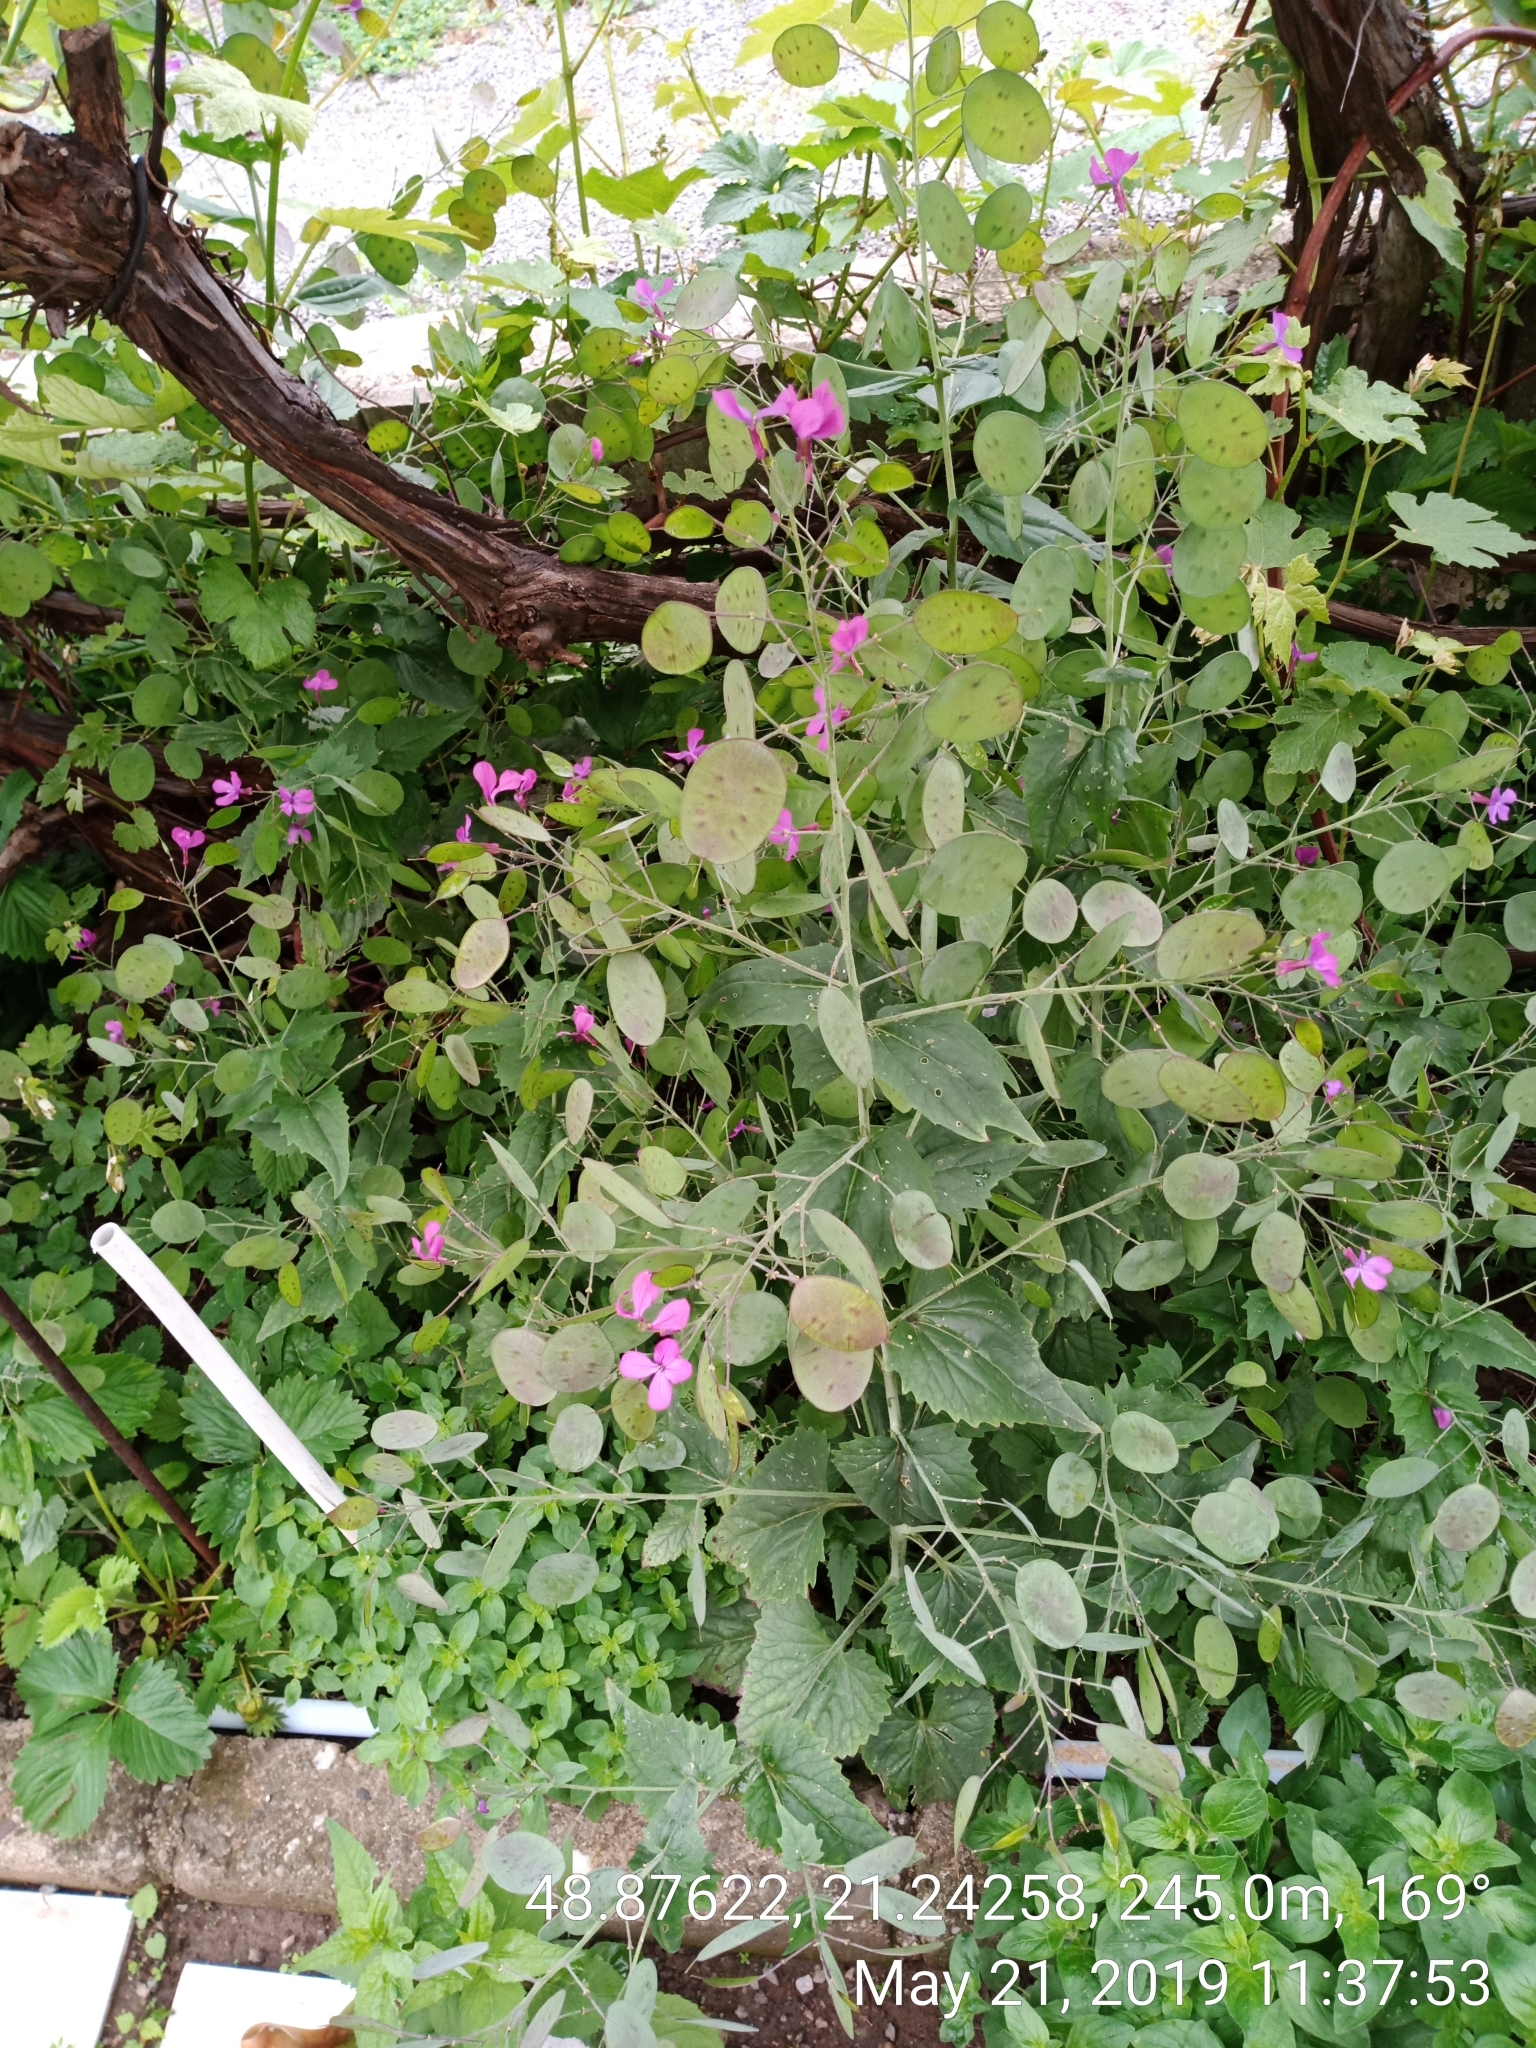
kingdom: Plantae
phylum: Tracheophyta
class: Magnoliopsida
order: Brassicales
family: Brassicaceae
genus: Lunaria
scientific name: Lunaria annua
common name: Honesty
